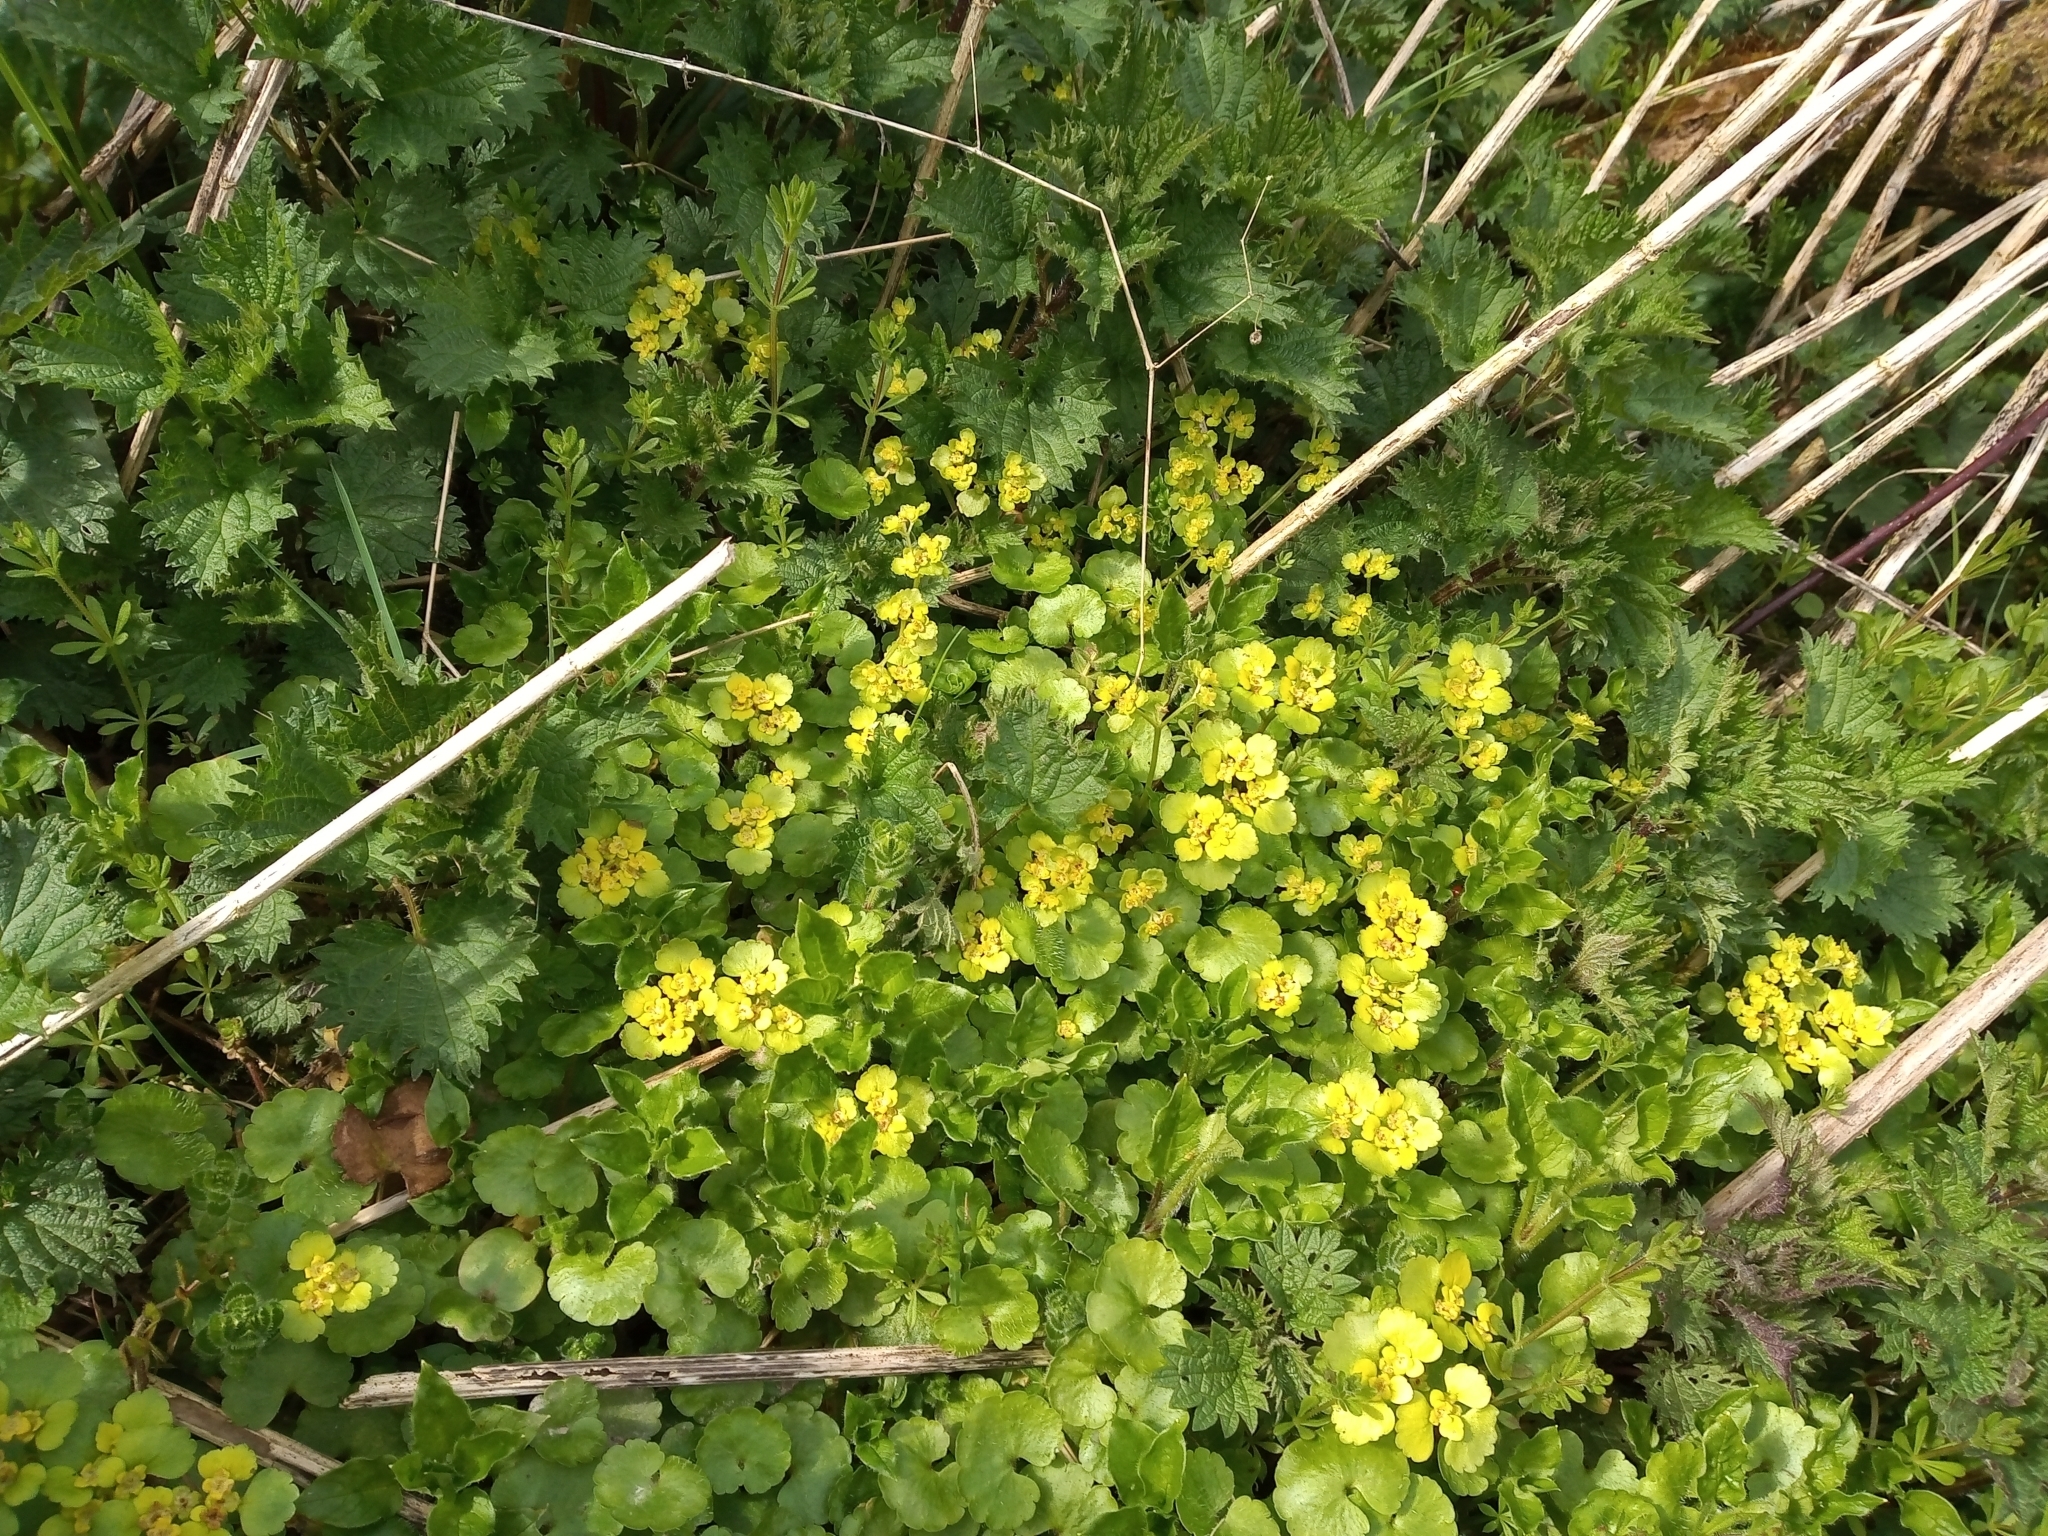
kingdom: Plantae
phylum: Tracheophyta
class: Magnoliopsida
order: Saxifragales
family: Saxifragaceae
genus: Chrysosplenium
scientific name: Chrysosplenium alternifolium
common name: Alternate-leaved golden-saxifrage
